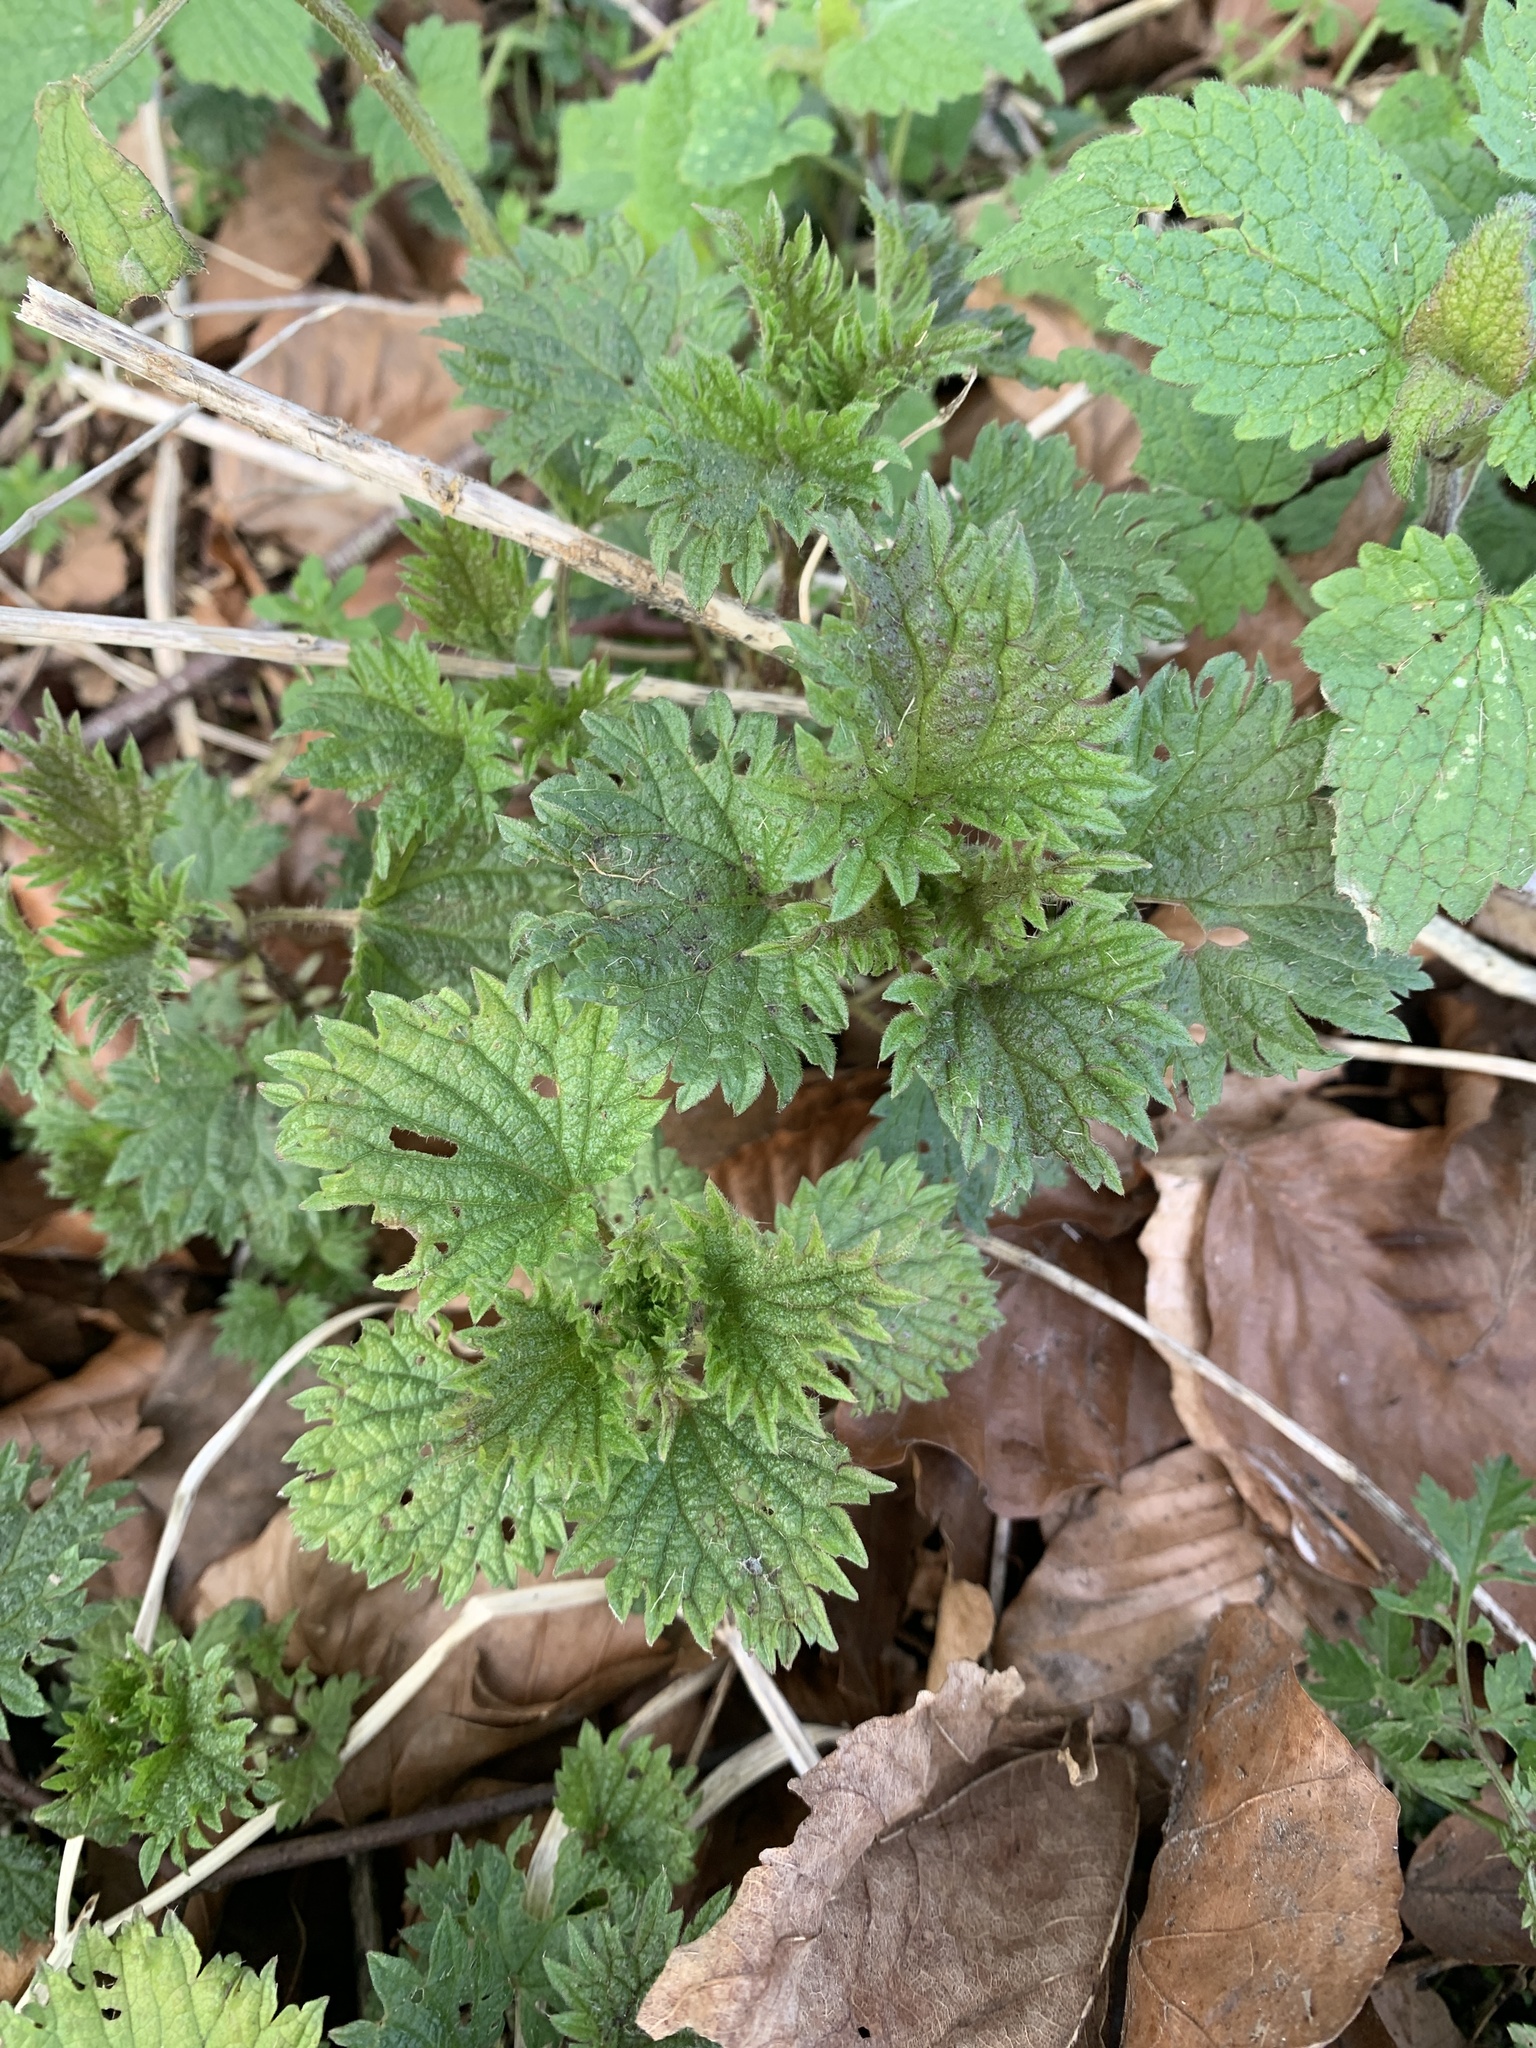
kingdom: Plantae
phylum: Tracheophyta
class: Magnoliopsida
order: Rosales
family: Urticaceae
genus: Urtica
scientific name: Urtica dioica
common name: Common nettle
